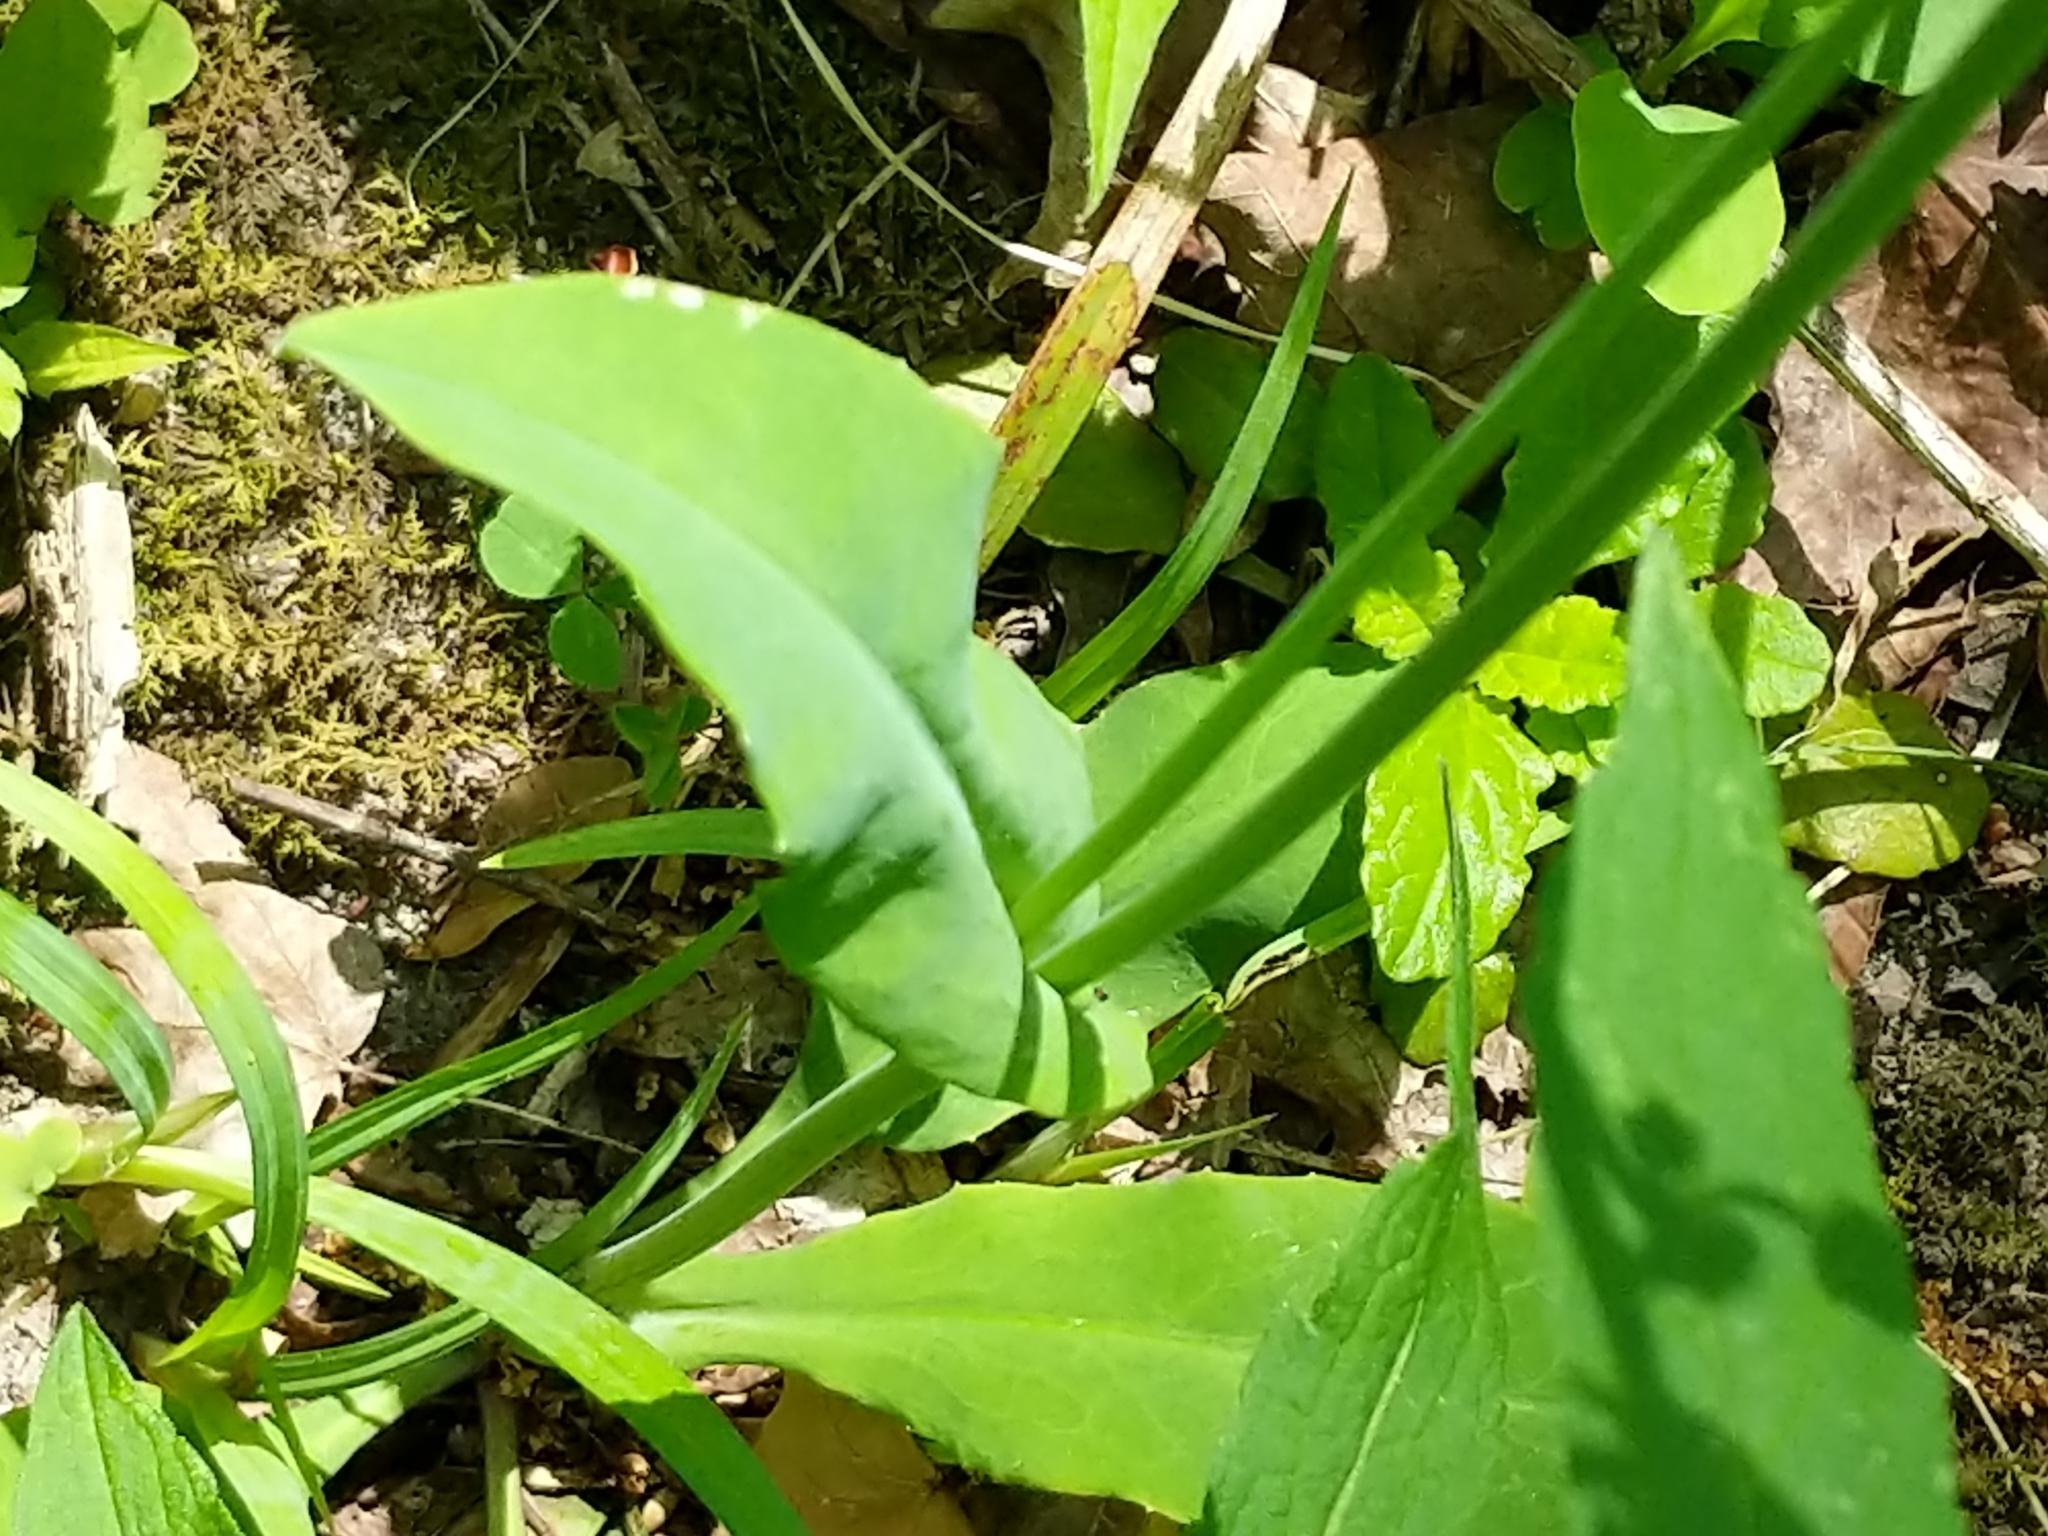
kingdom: Plantae
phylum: Tracheophyta
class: Magnoliopsida
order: Asterales
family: Asteraceae
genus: Krigia
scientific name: Krigia biflora
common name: Orange dwarf-dandelion
